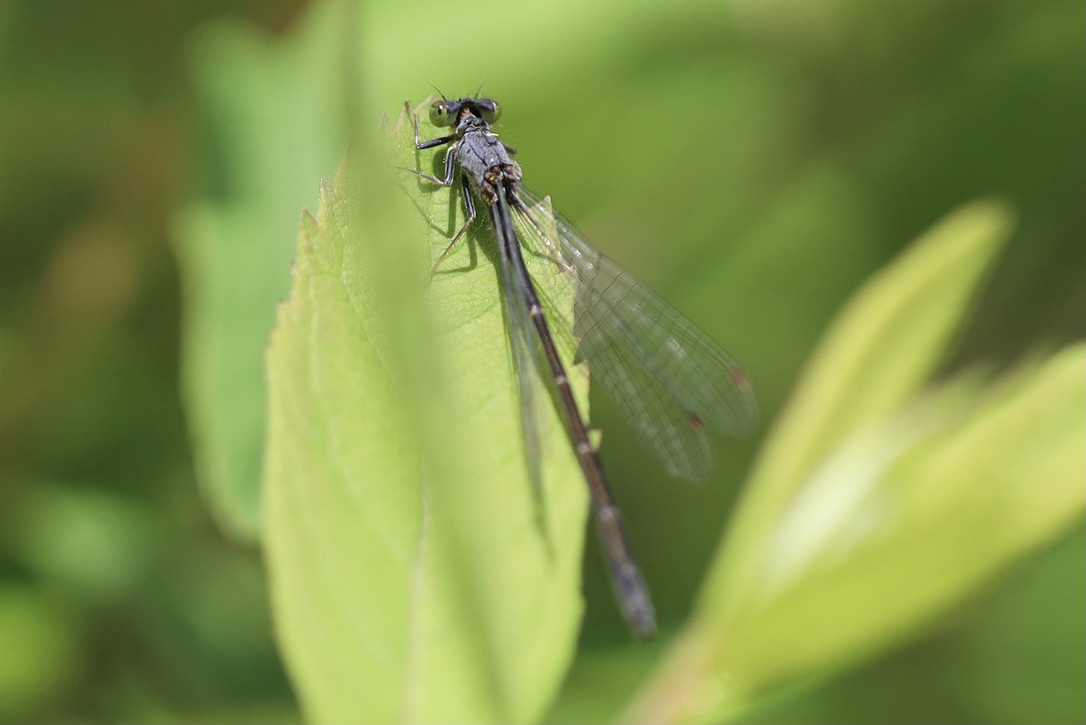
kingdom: Animalia
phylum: Arthropoda
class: Insecta
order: Odonata
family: Coenagrionidae
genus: Ischnura
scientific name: Ischnura cervula
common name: Pacific forktail
